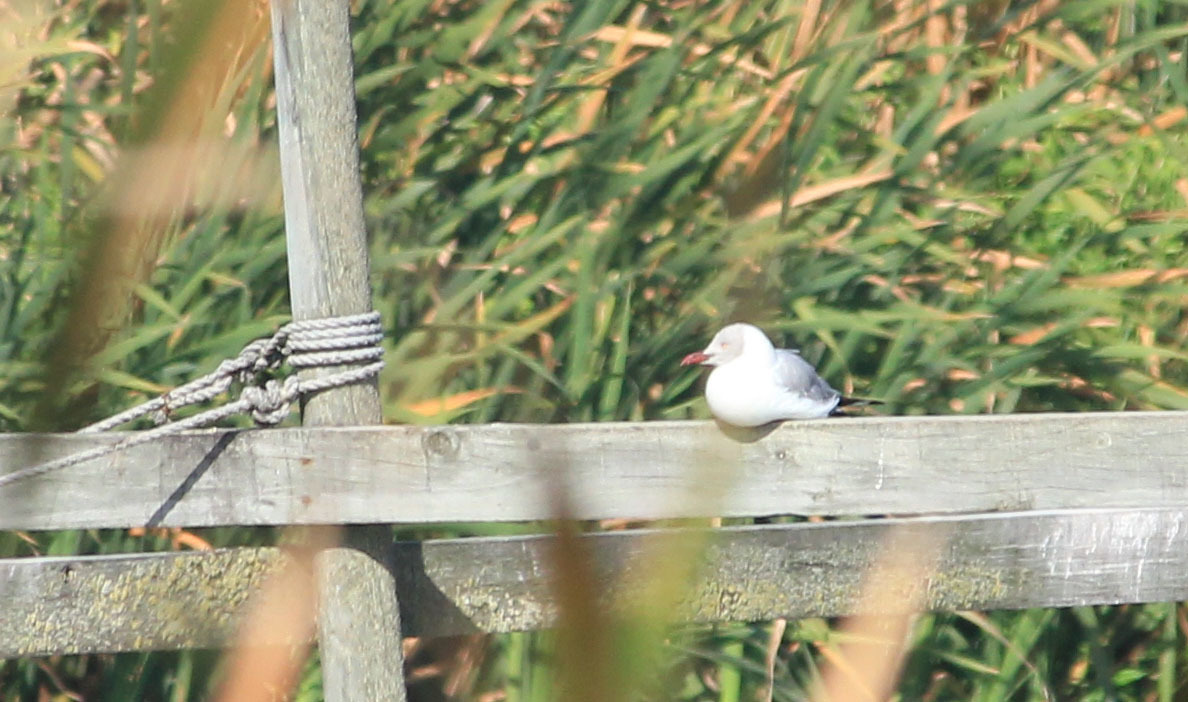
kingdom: Animalia
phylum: Chordata
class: Aves
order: Charadriiformes
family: Laridae
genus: Chroicocephalus
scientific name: Chroicocephalus cirrocephalus
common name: Grey-headed gull
